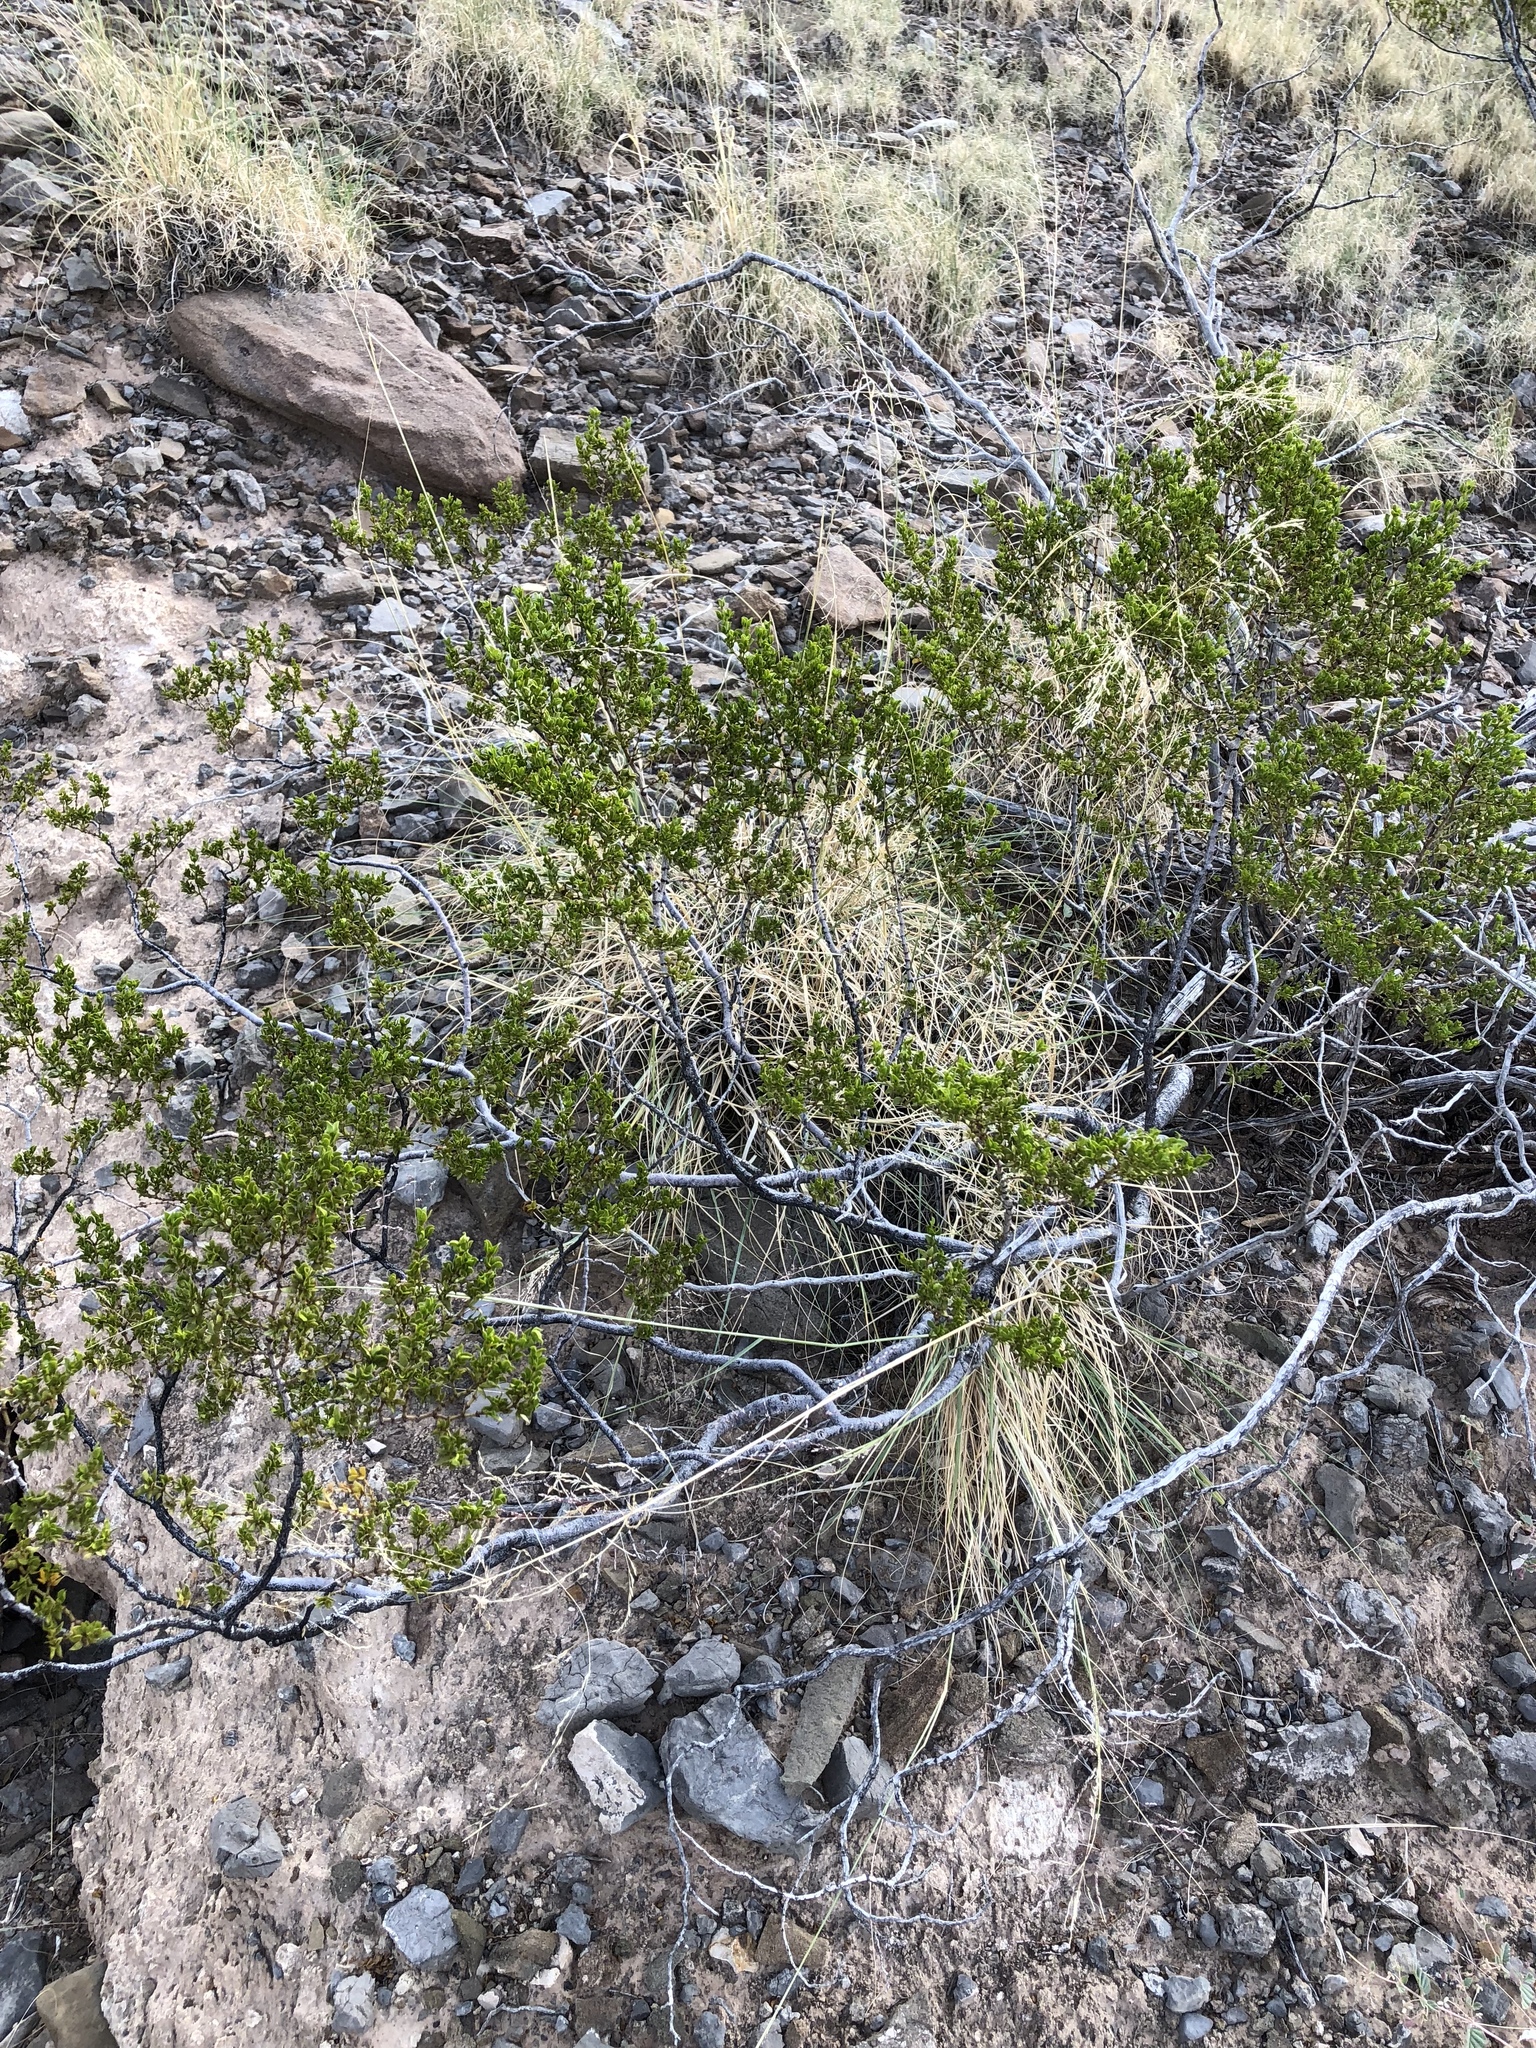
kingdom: Plantae
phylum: Tracheophyta
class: Magnoliopsida
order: Zygophyllales
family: Zygophyllaceae
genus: Larrea
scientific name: Larrea tridentata
